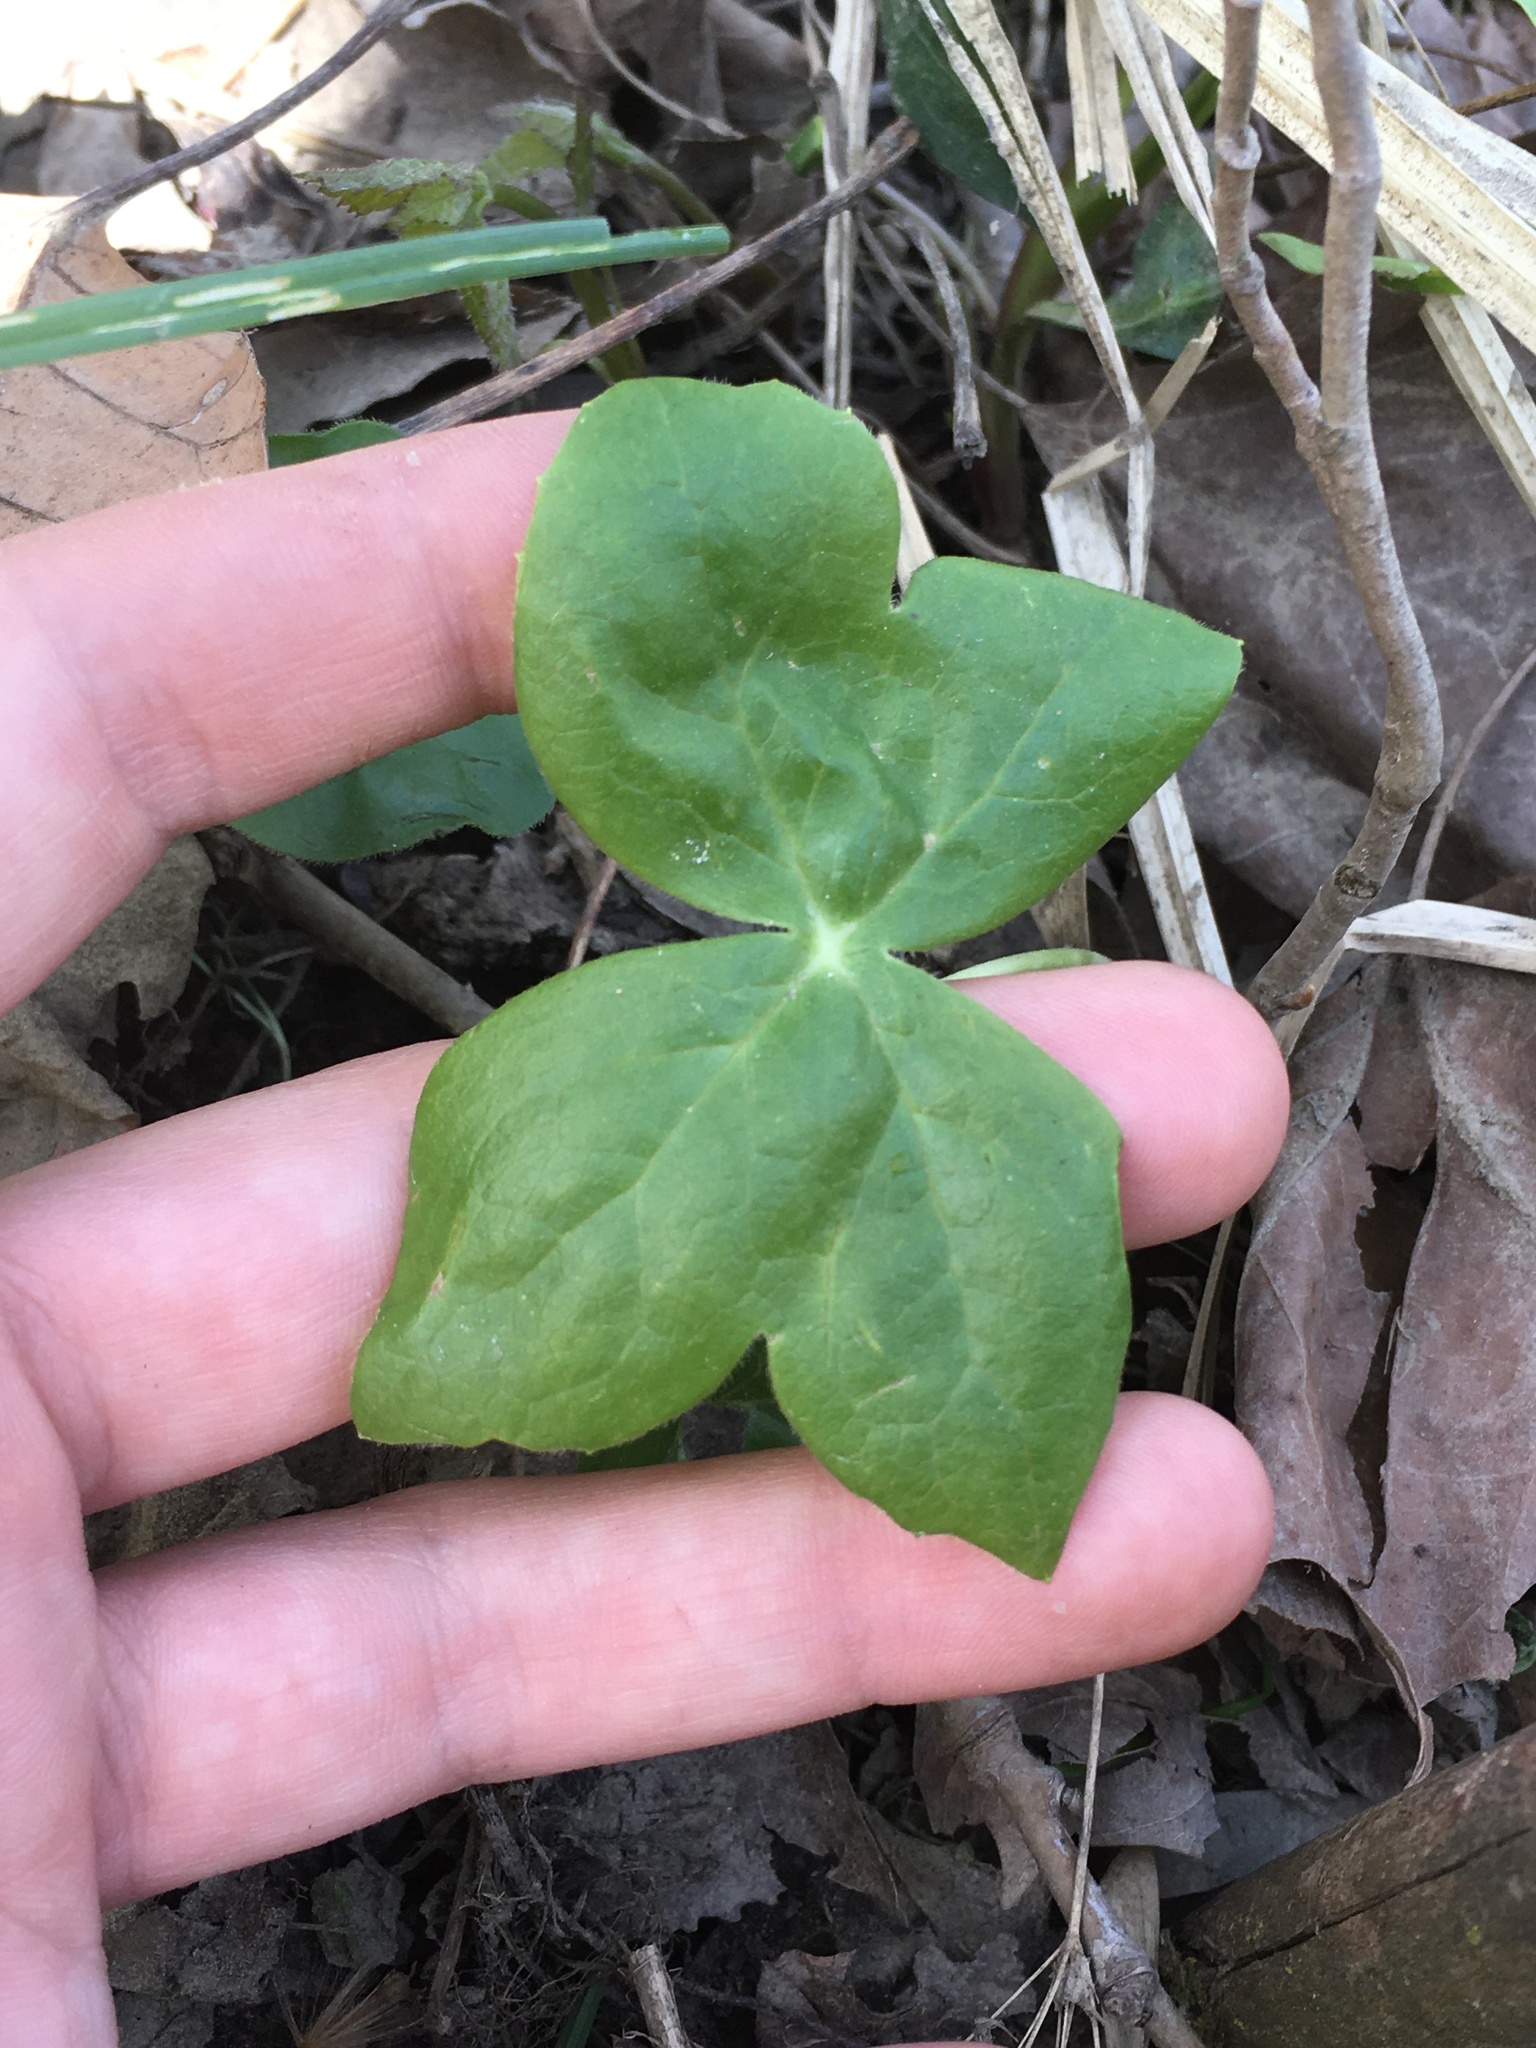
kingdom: Plantae
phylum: Tracheophyta
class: Magnoliopsida
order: Ranunculales
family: Berberidaceae
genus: Podophyllum
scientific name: Podophyllum peltatum
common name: Wild mandrake
